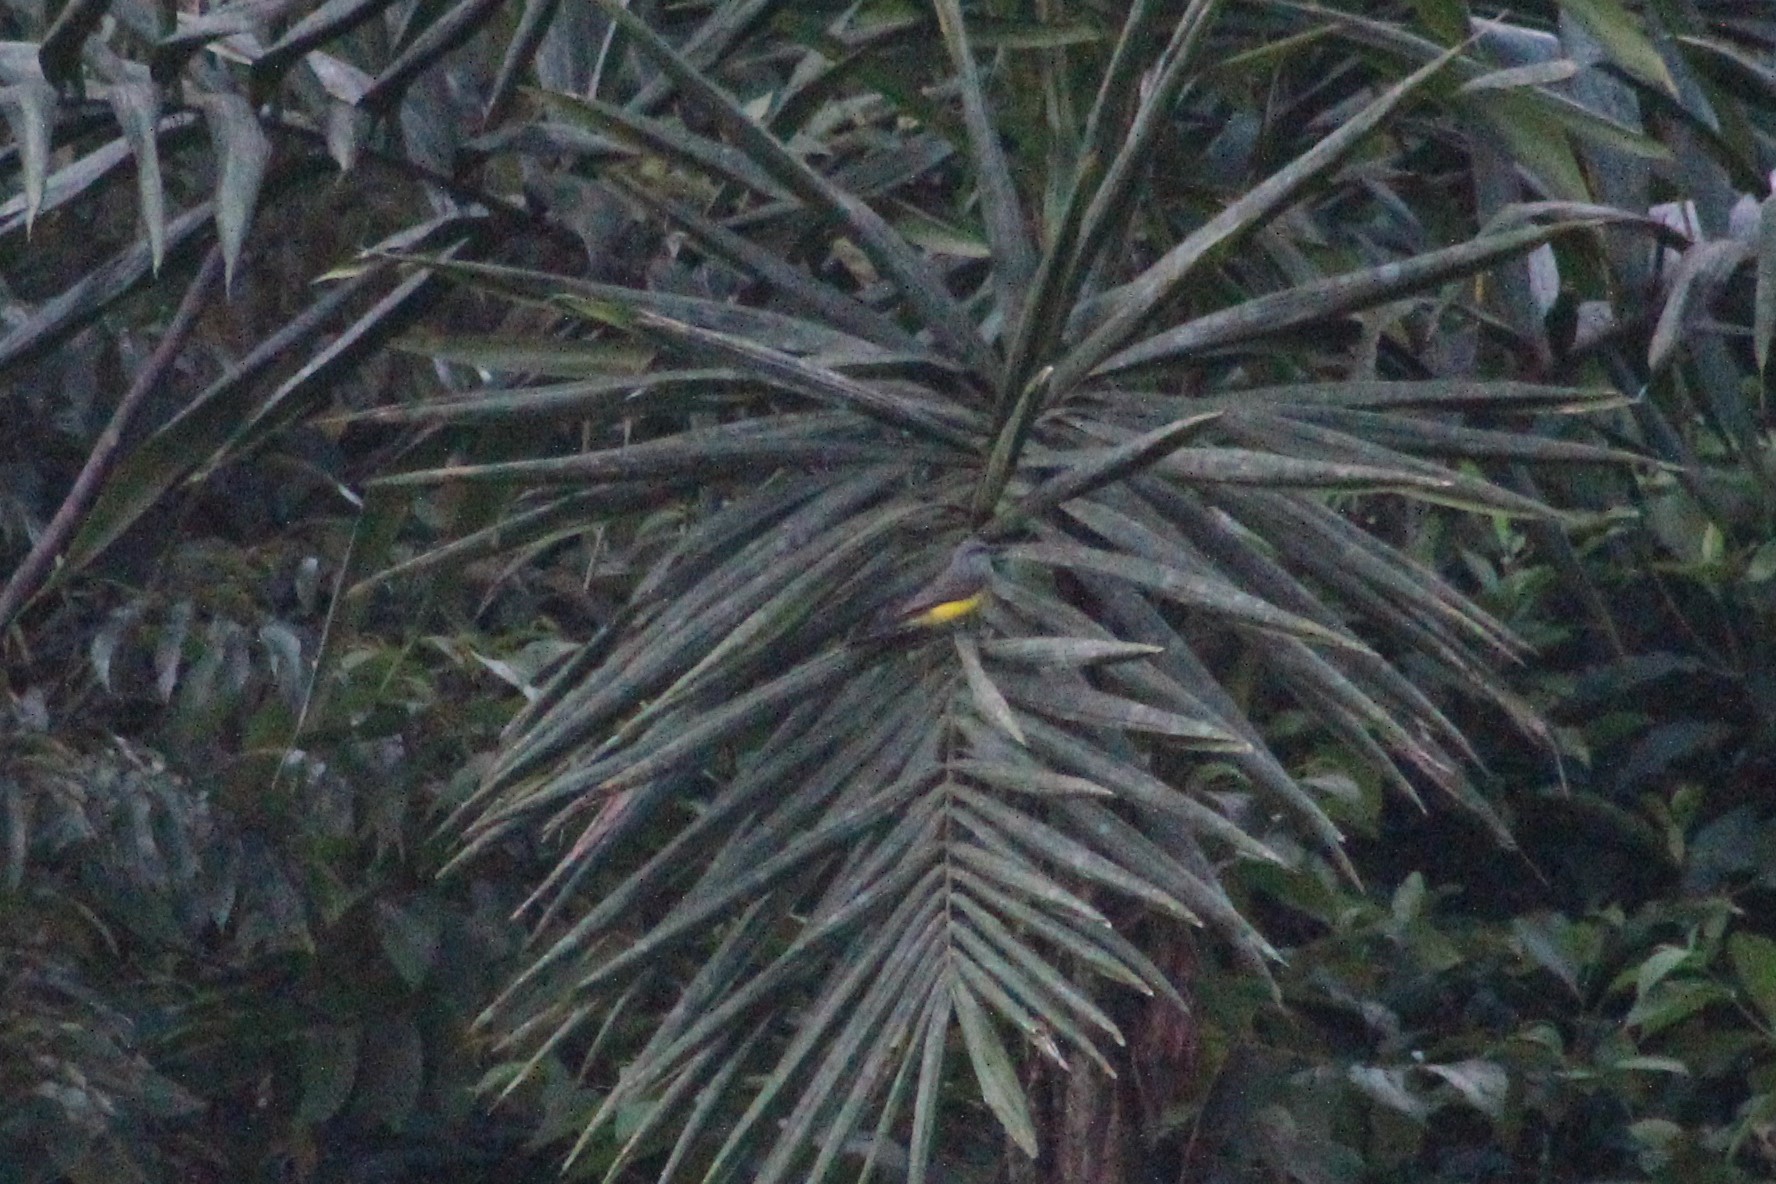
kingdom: Animalia
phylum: Chordata
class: Aves
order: Passeriformes
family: Tyrannidae
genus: Tyrannus
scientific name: Tyrannus melancholicus
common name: Tropical kingbird
